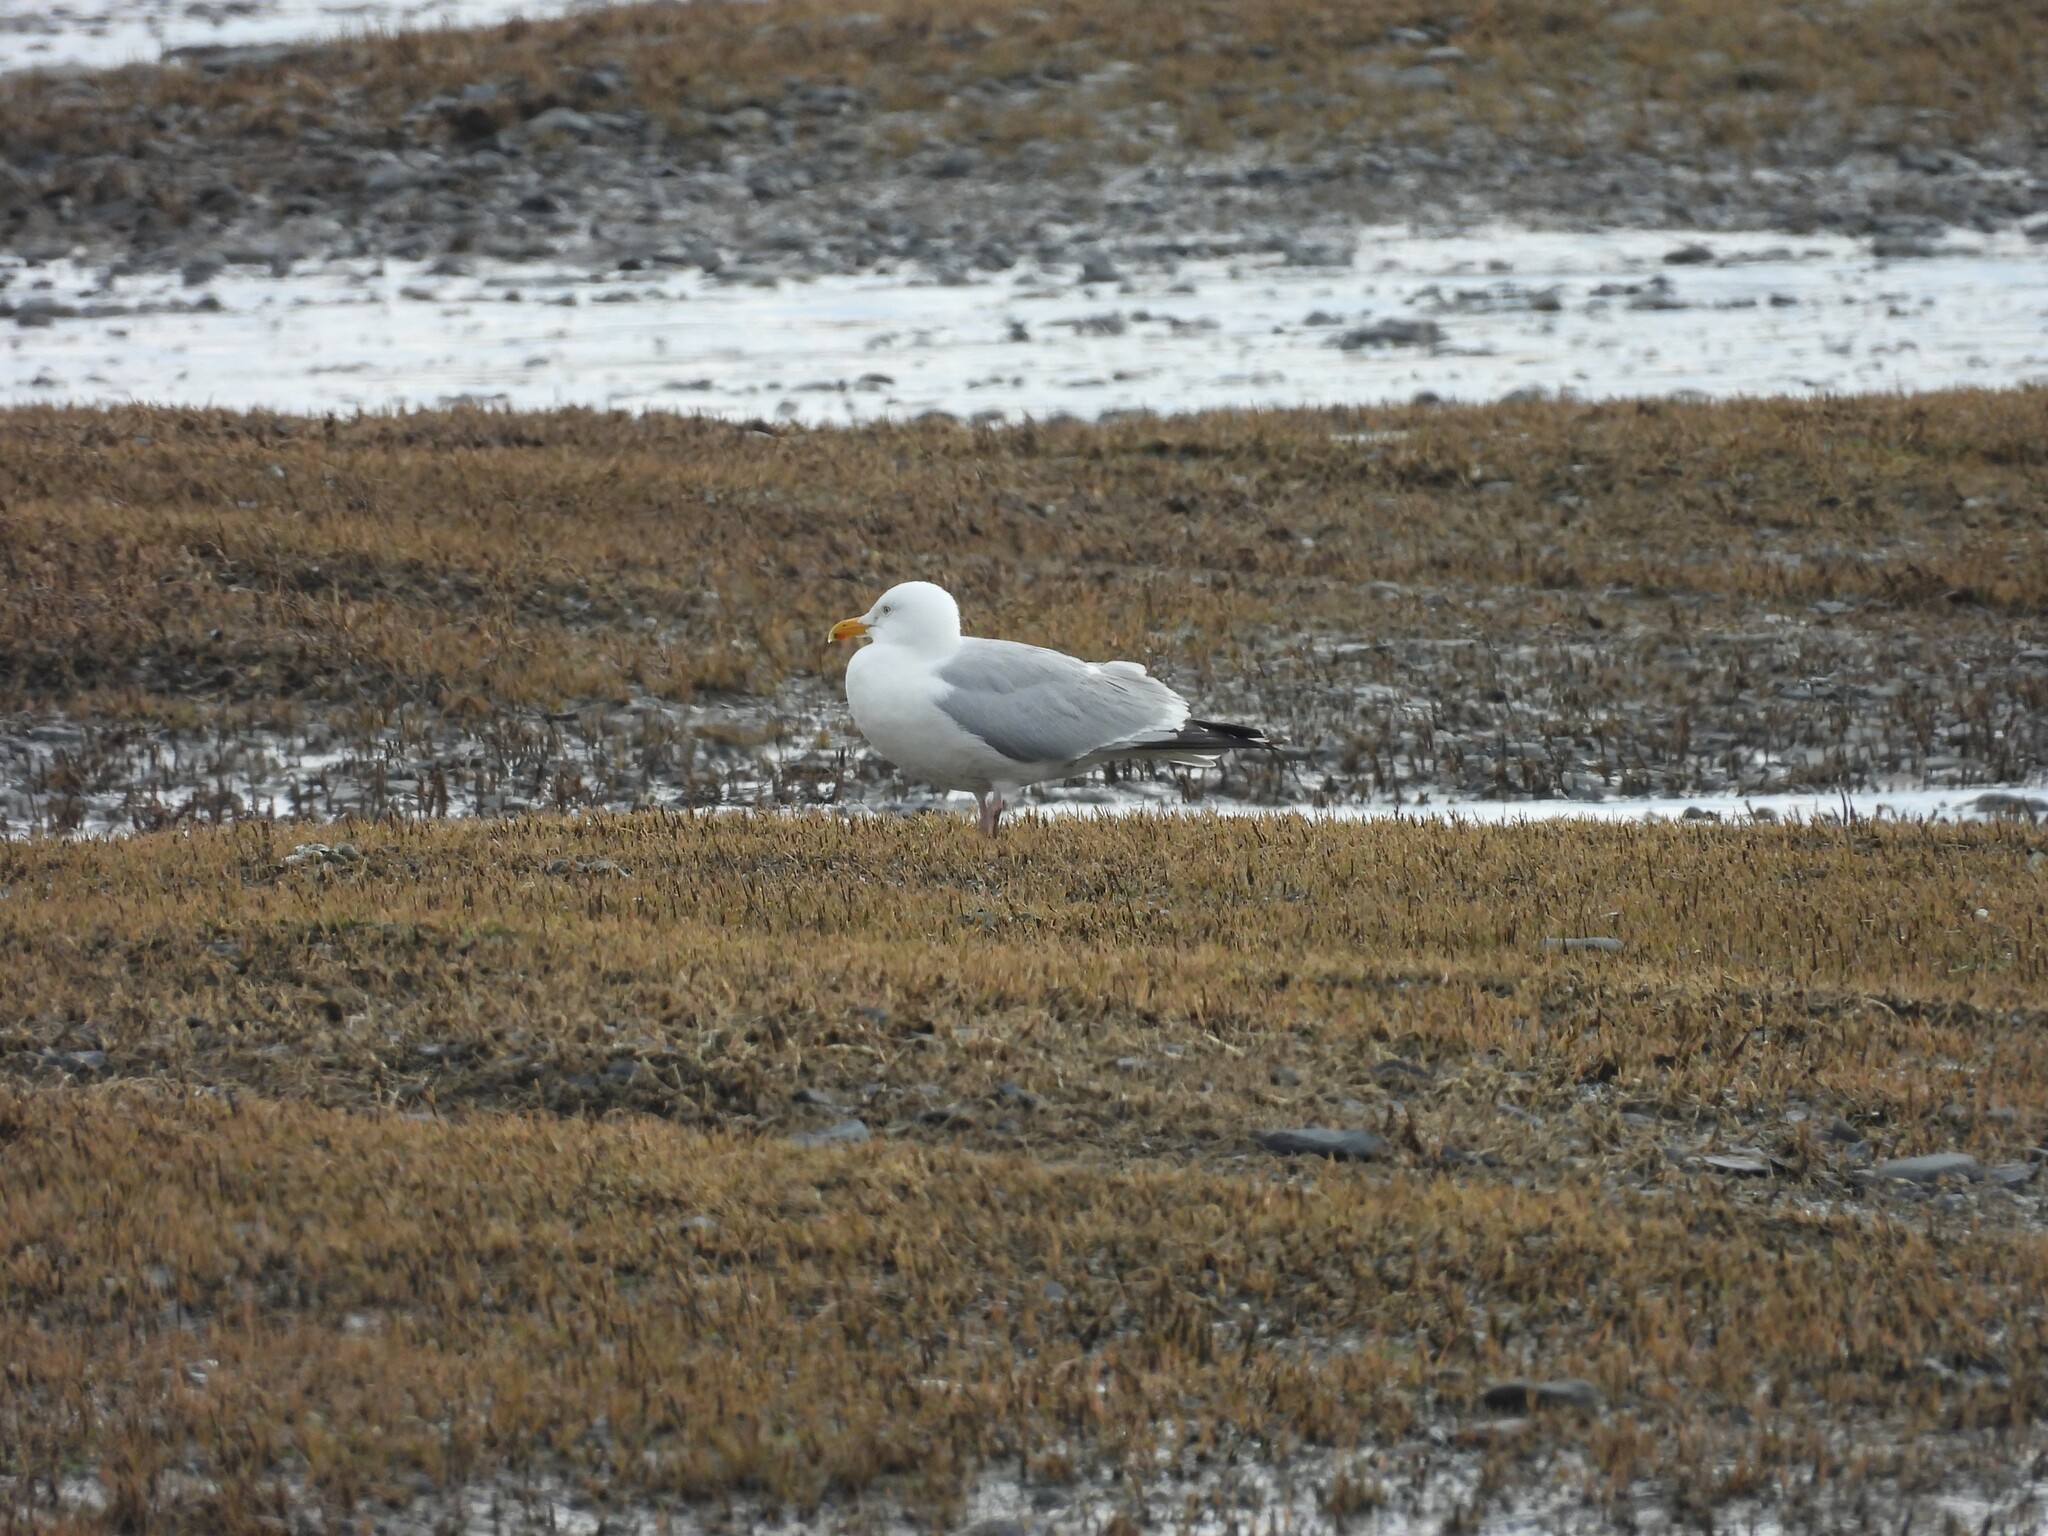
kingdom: Animalia
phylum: Chordata
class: Aves
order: Charadriiformes
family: Laridae
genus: Larus
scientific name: Larus argentatus
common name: Herring gull
